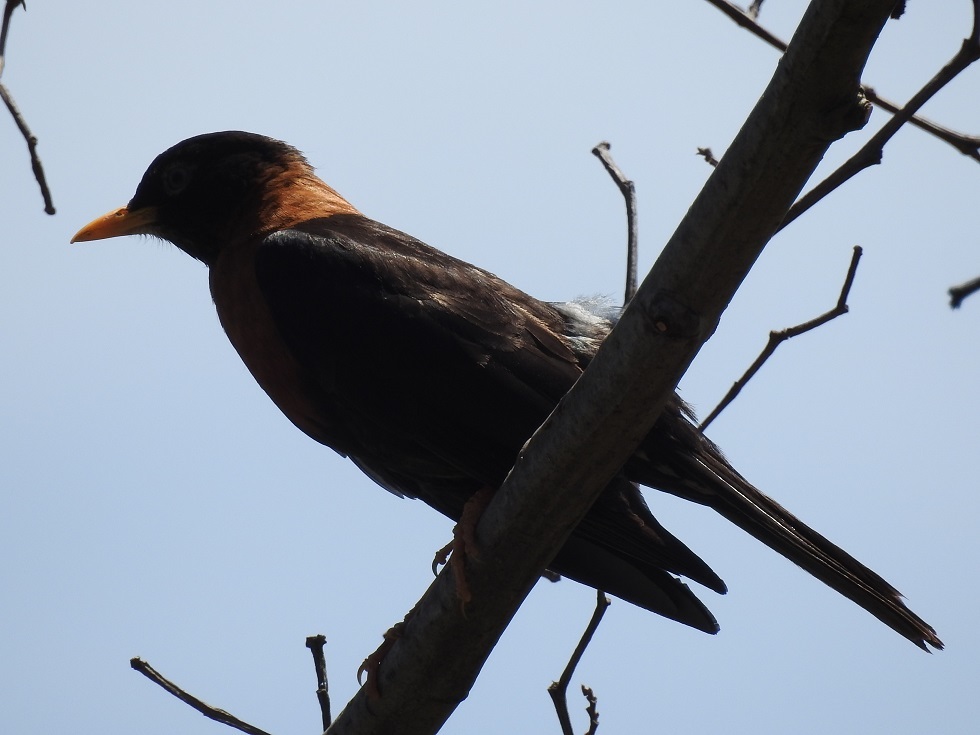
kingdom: Animalia
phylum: Chordata
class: Aves
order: Passeriformes
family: Turdidae
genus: Turdus
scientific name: Turdus rufitorques
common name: Rufous-collared thrush
